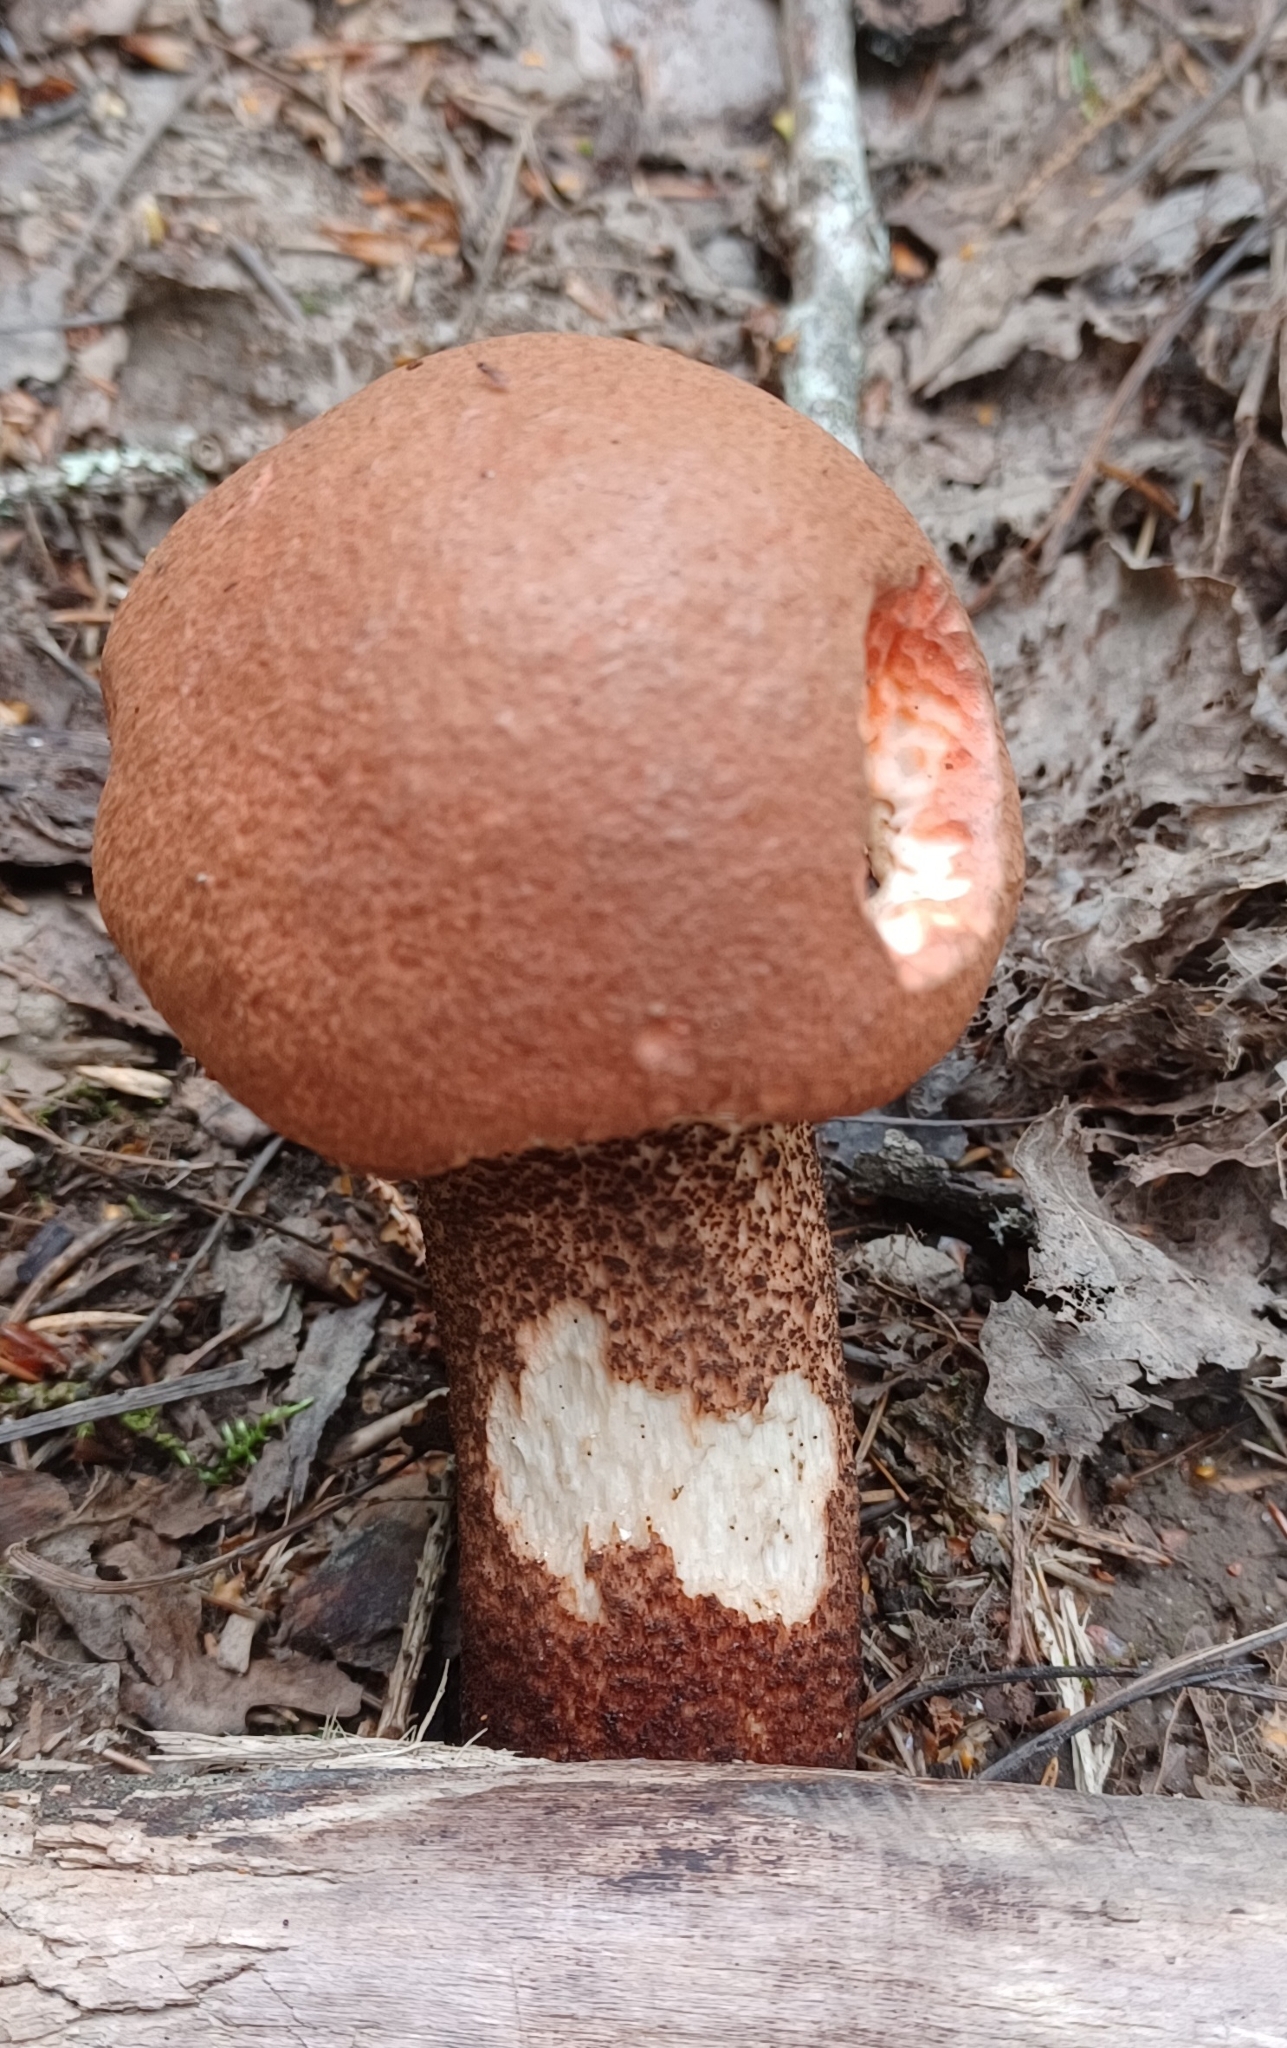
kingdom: Fungi
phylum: Basidiomycota
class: Agaricomycetes
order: Boletales
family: Boletaceae
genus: Leccinum
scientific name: Leccinum aurantiacum
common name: Orange bolete
